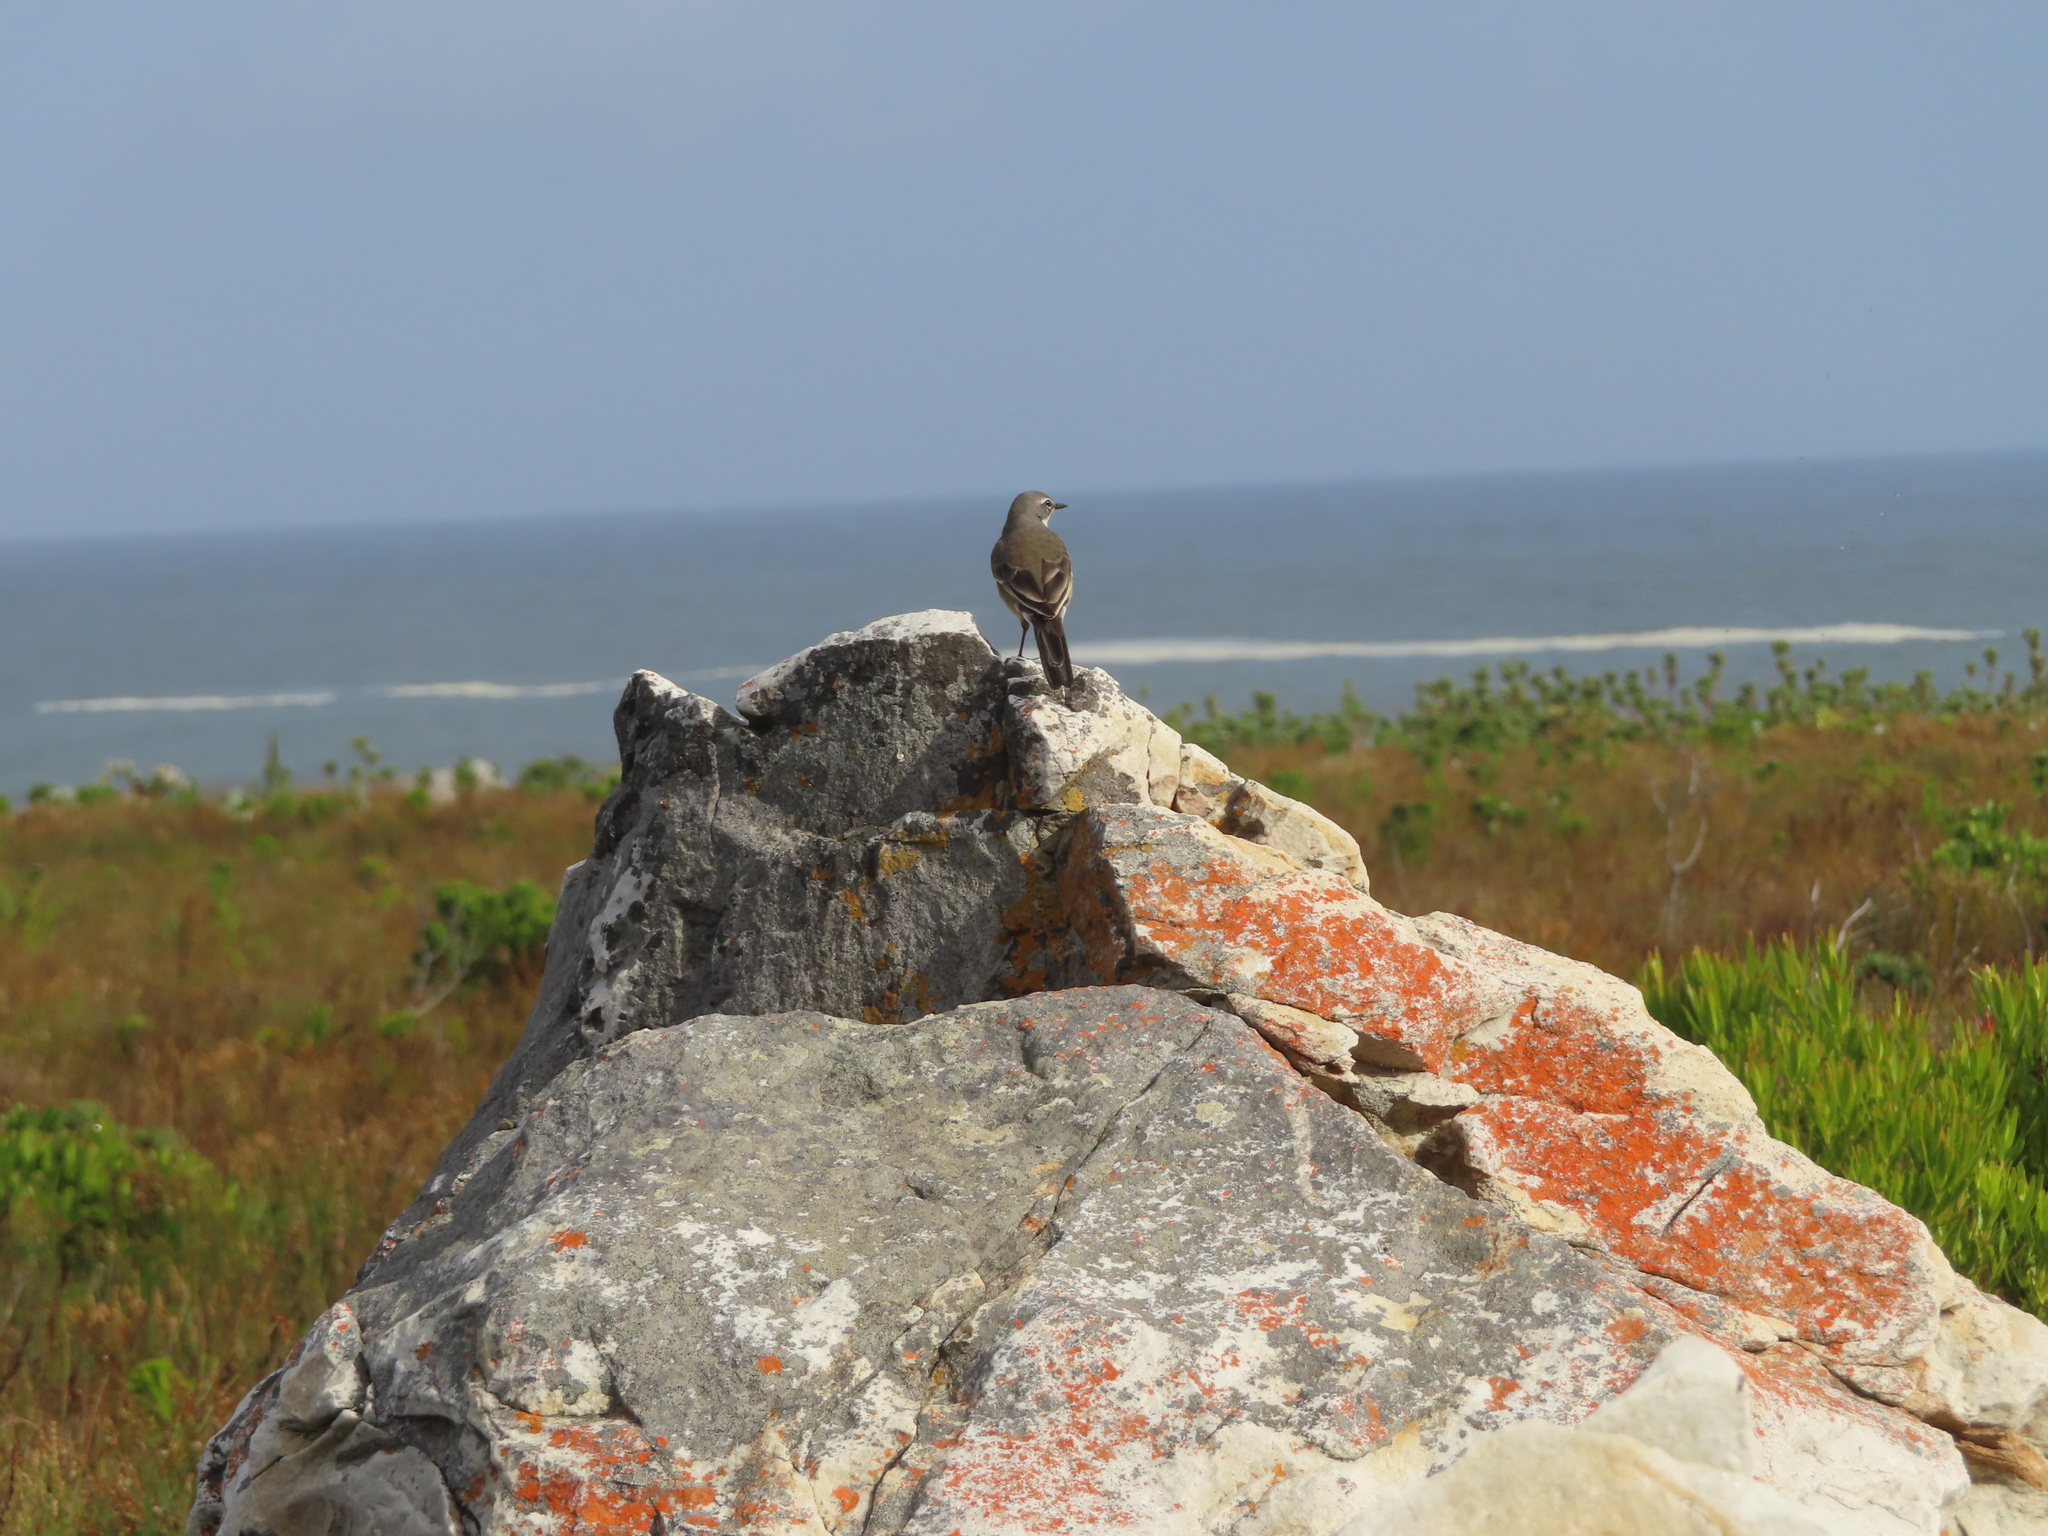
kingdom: Animalia
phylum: Chordata
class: Aves
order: Passeriformes
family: Motacillidae
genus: Motacilla
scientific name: Motacilla capensis
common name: Cape wagtail
